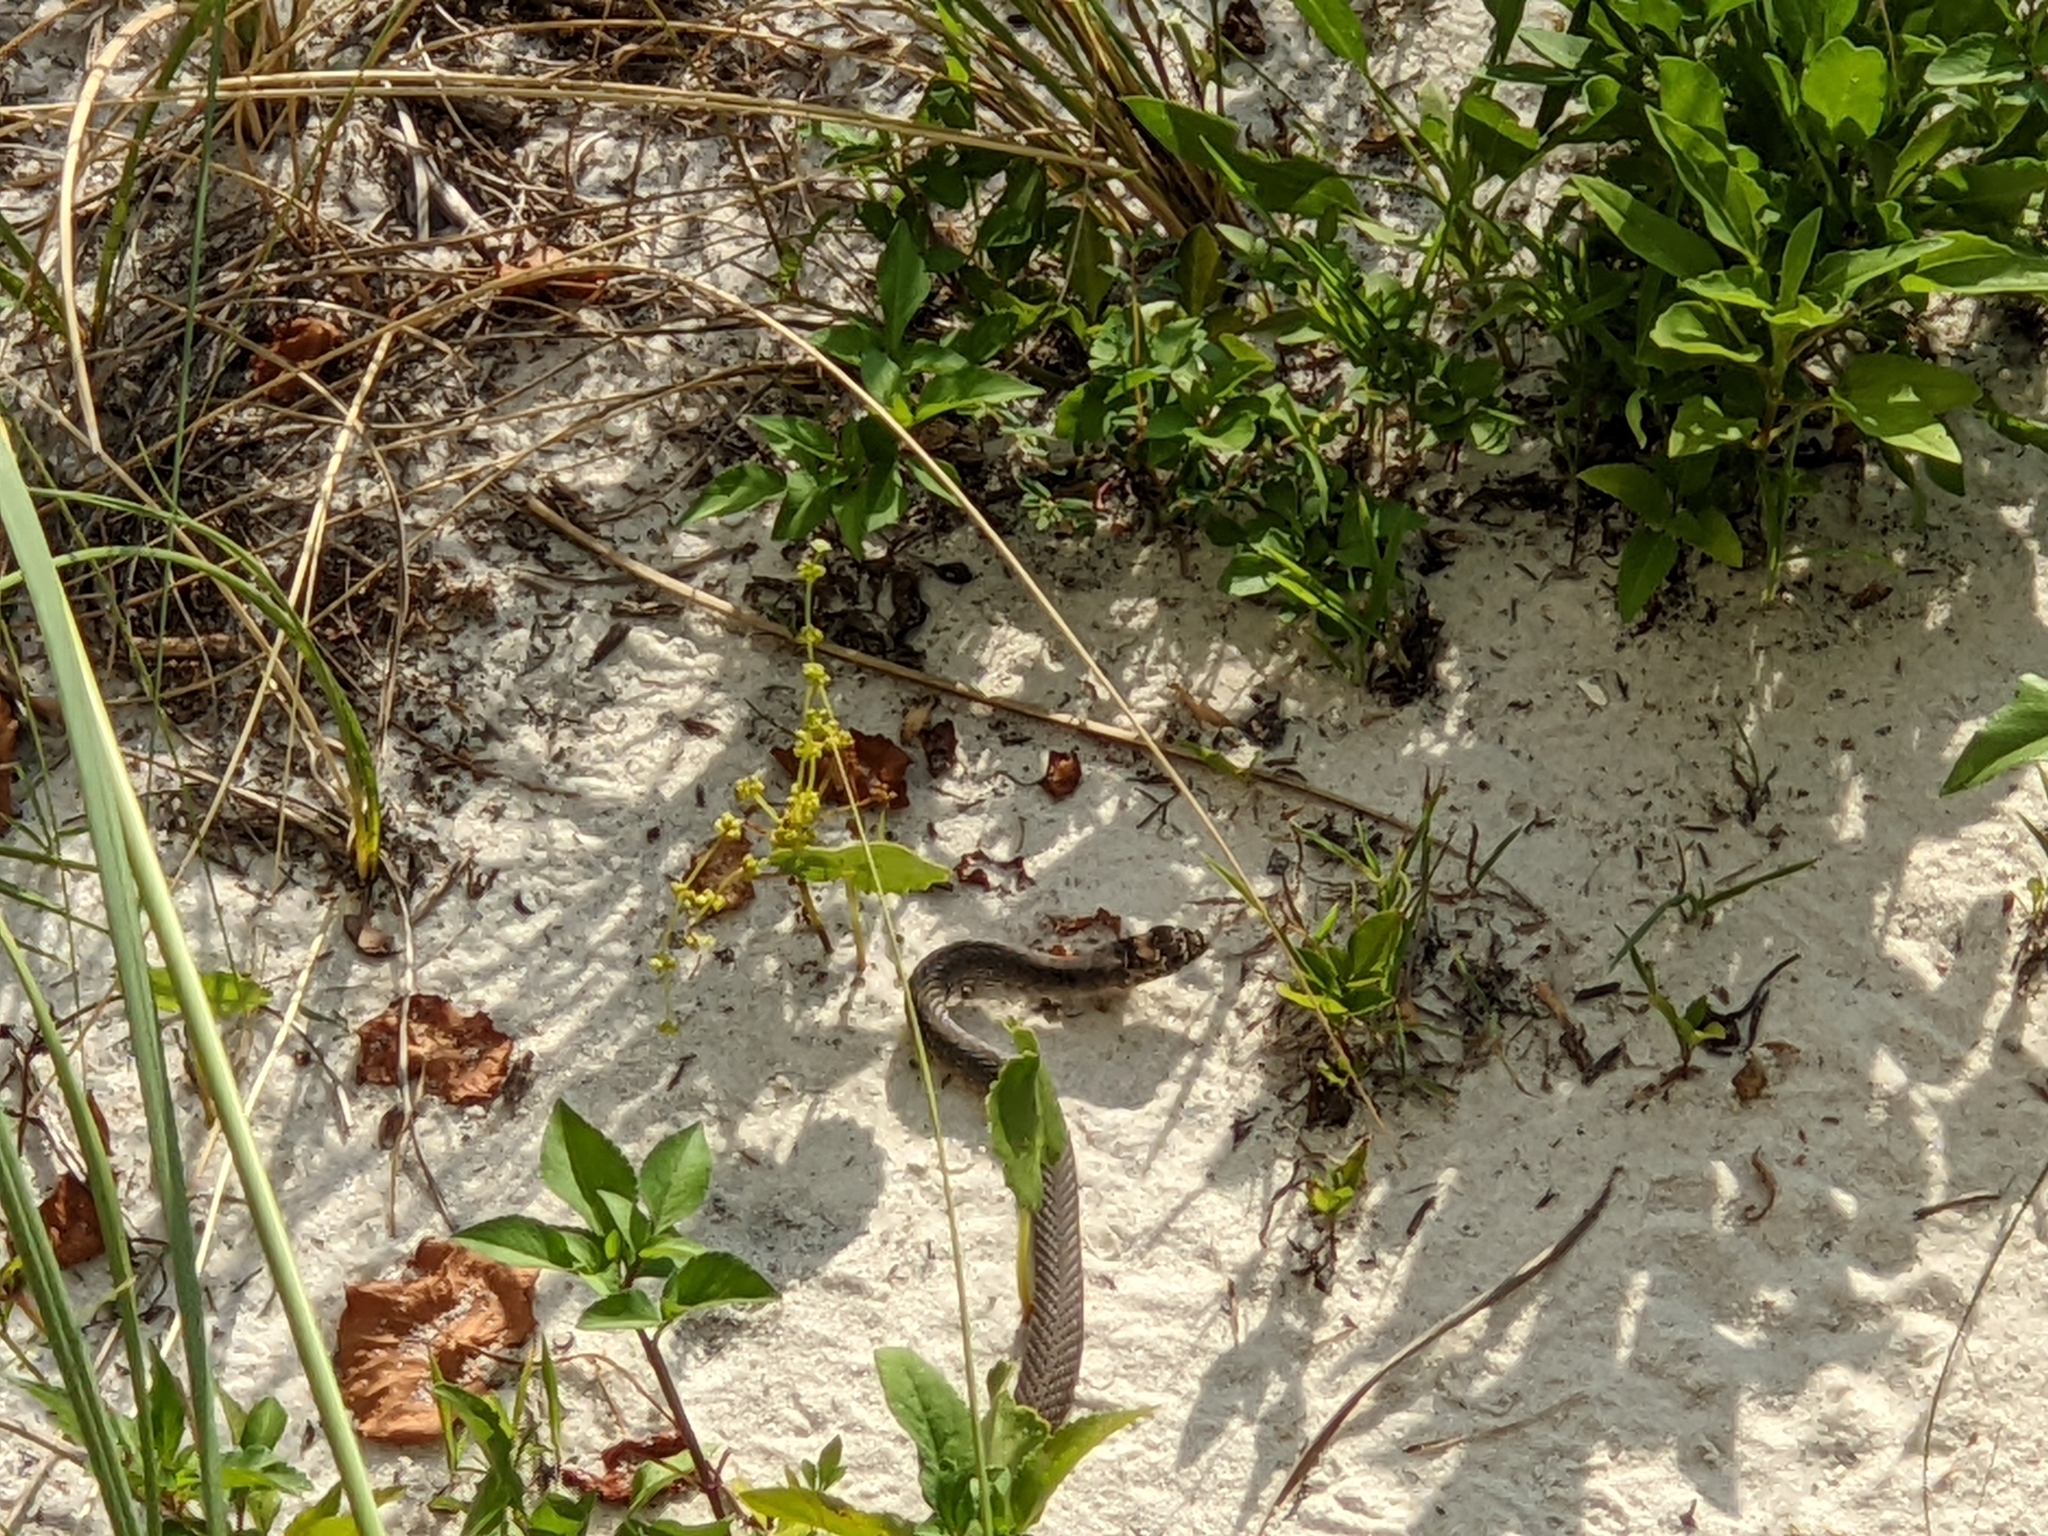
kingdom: Animalia
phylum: Chordata
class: Squamata
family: Colubridae
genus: Masticophis
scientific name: Masticophis flagellum
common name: Coachwhip
